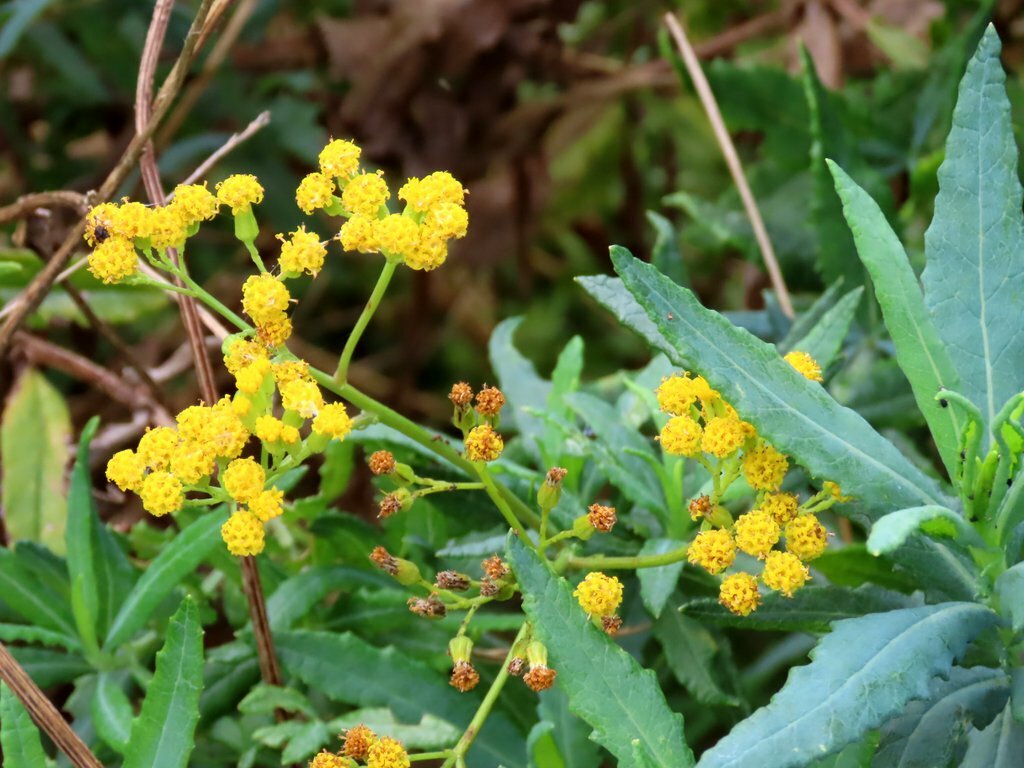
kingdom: Plantae
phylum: Tracheophyta
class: Magnoliopsida
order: Asterales
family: Asteraceae
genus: Senecio
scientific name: Senecio odoratus
